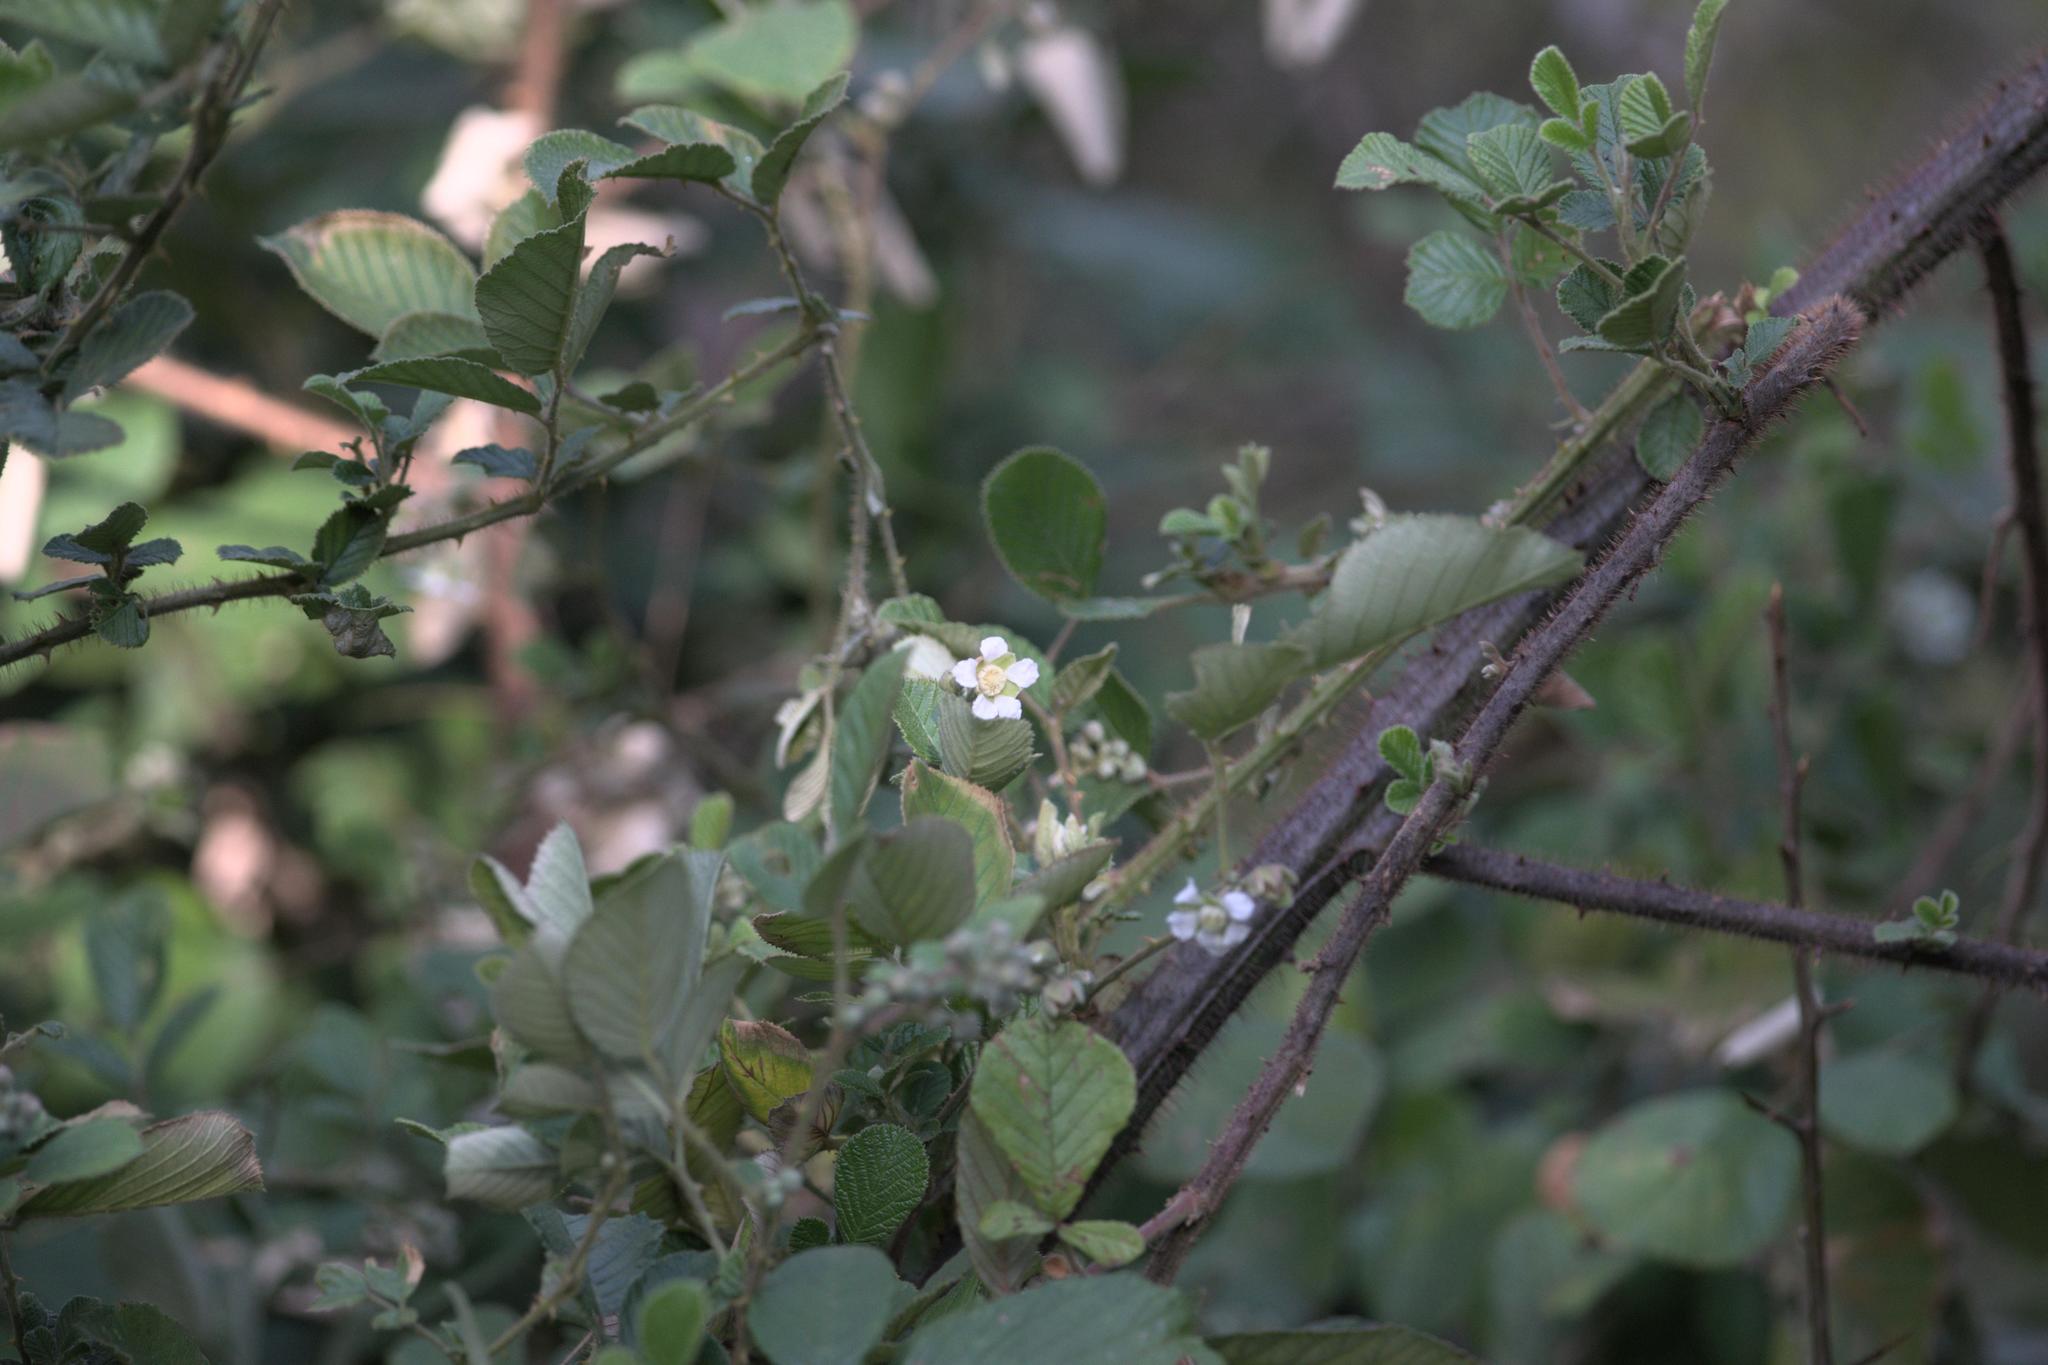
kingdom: Plantae
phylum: Tracheophyta
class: Magnoliopsida
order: Rosales
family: Rosaceae
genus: Rubus
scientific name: Rubus ellipticus
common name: Cheeseberry
